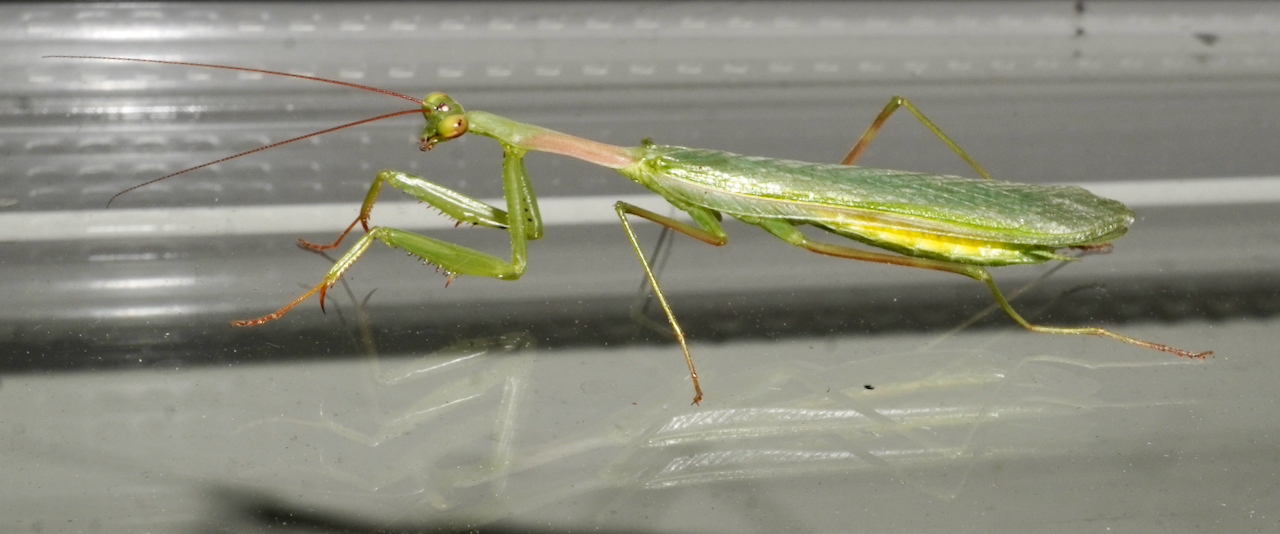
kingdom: Animalia
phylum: Arthropoda
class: Insecta
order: Mantodea
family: Miomantidae
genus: Miomantis
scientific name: Miomantis caffra
